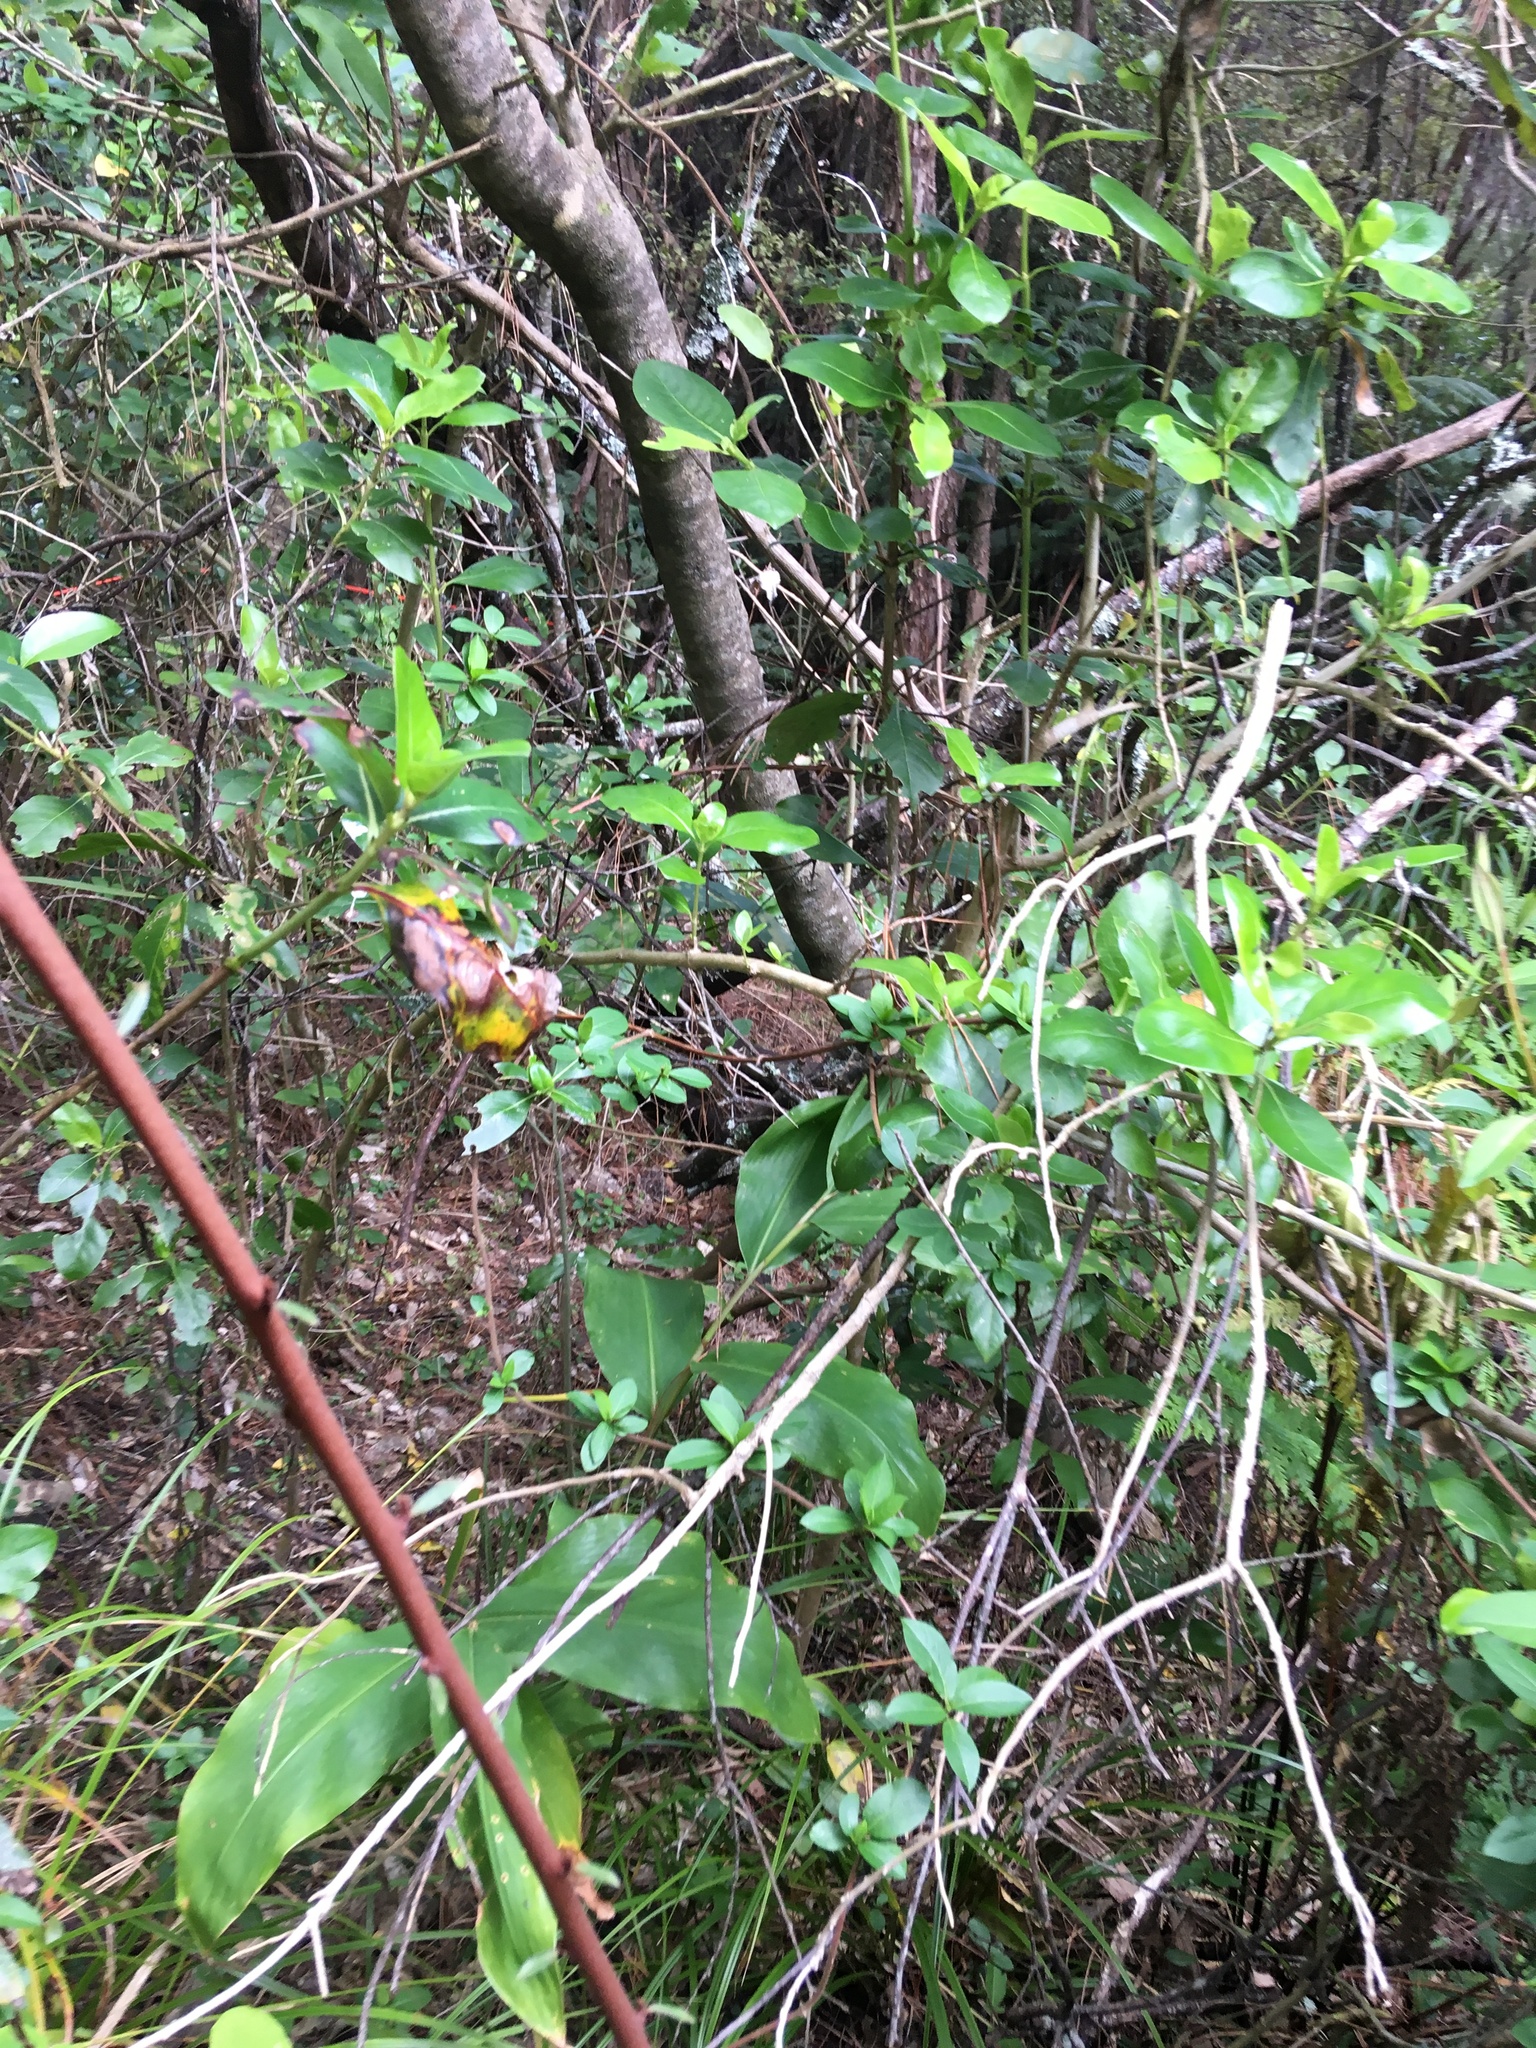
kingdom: Plantae
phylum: Tracheophyta
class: Liliopsida
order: Zingiberales
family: Zingiberaceae
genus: Hedychium
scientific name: Hedychium gardnerianum
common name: Himalayan ginger
